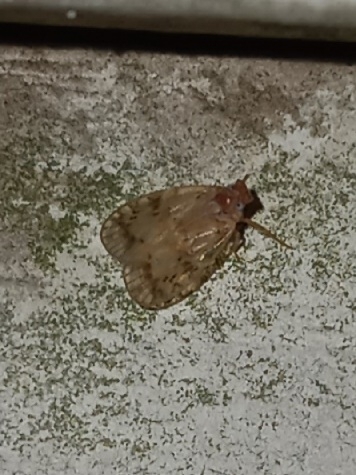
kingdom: Animalia
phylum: Arthropoda
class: Insecta
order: Hemiptera
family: Cixiidae
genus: Bothriocera
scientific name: Bothriocera drakei
